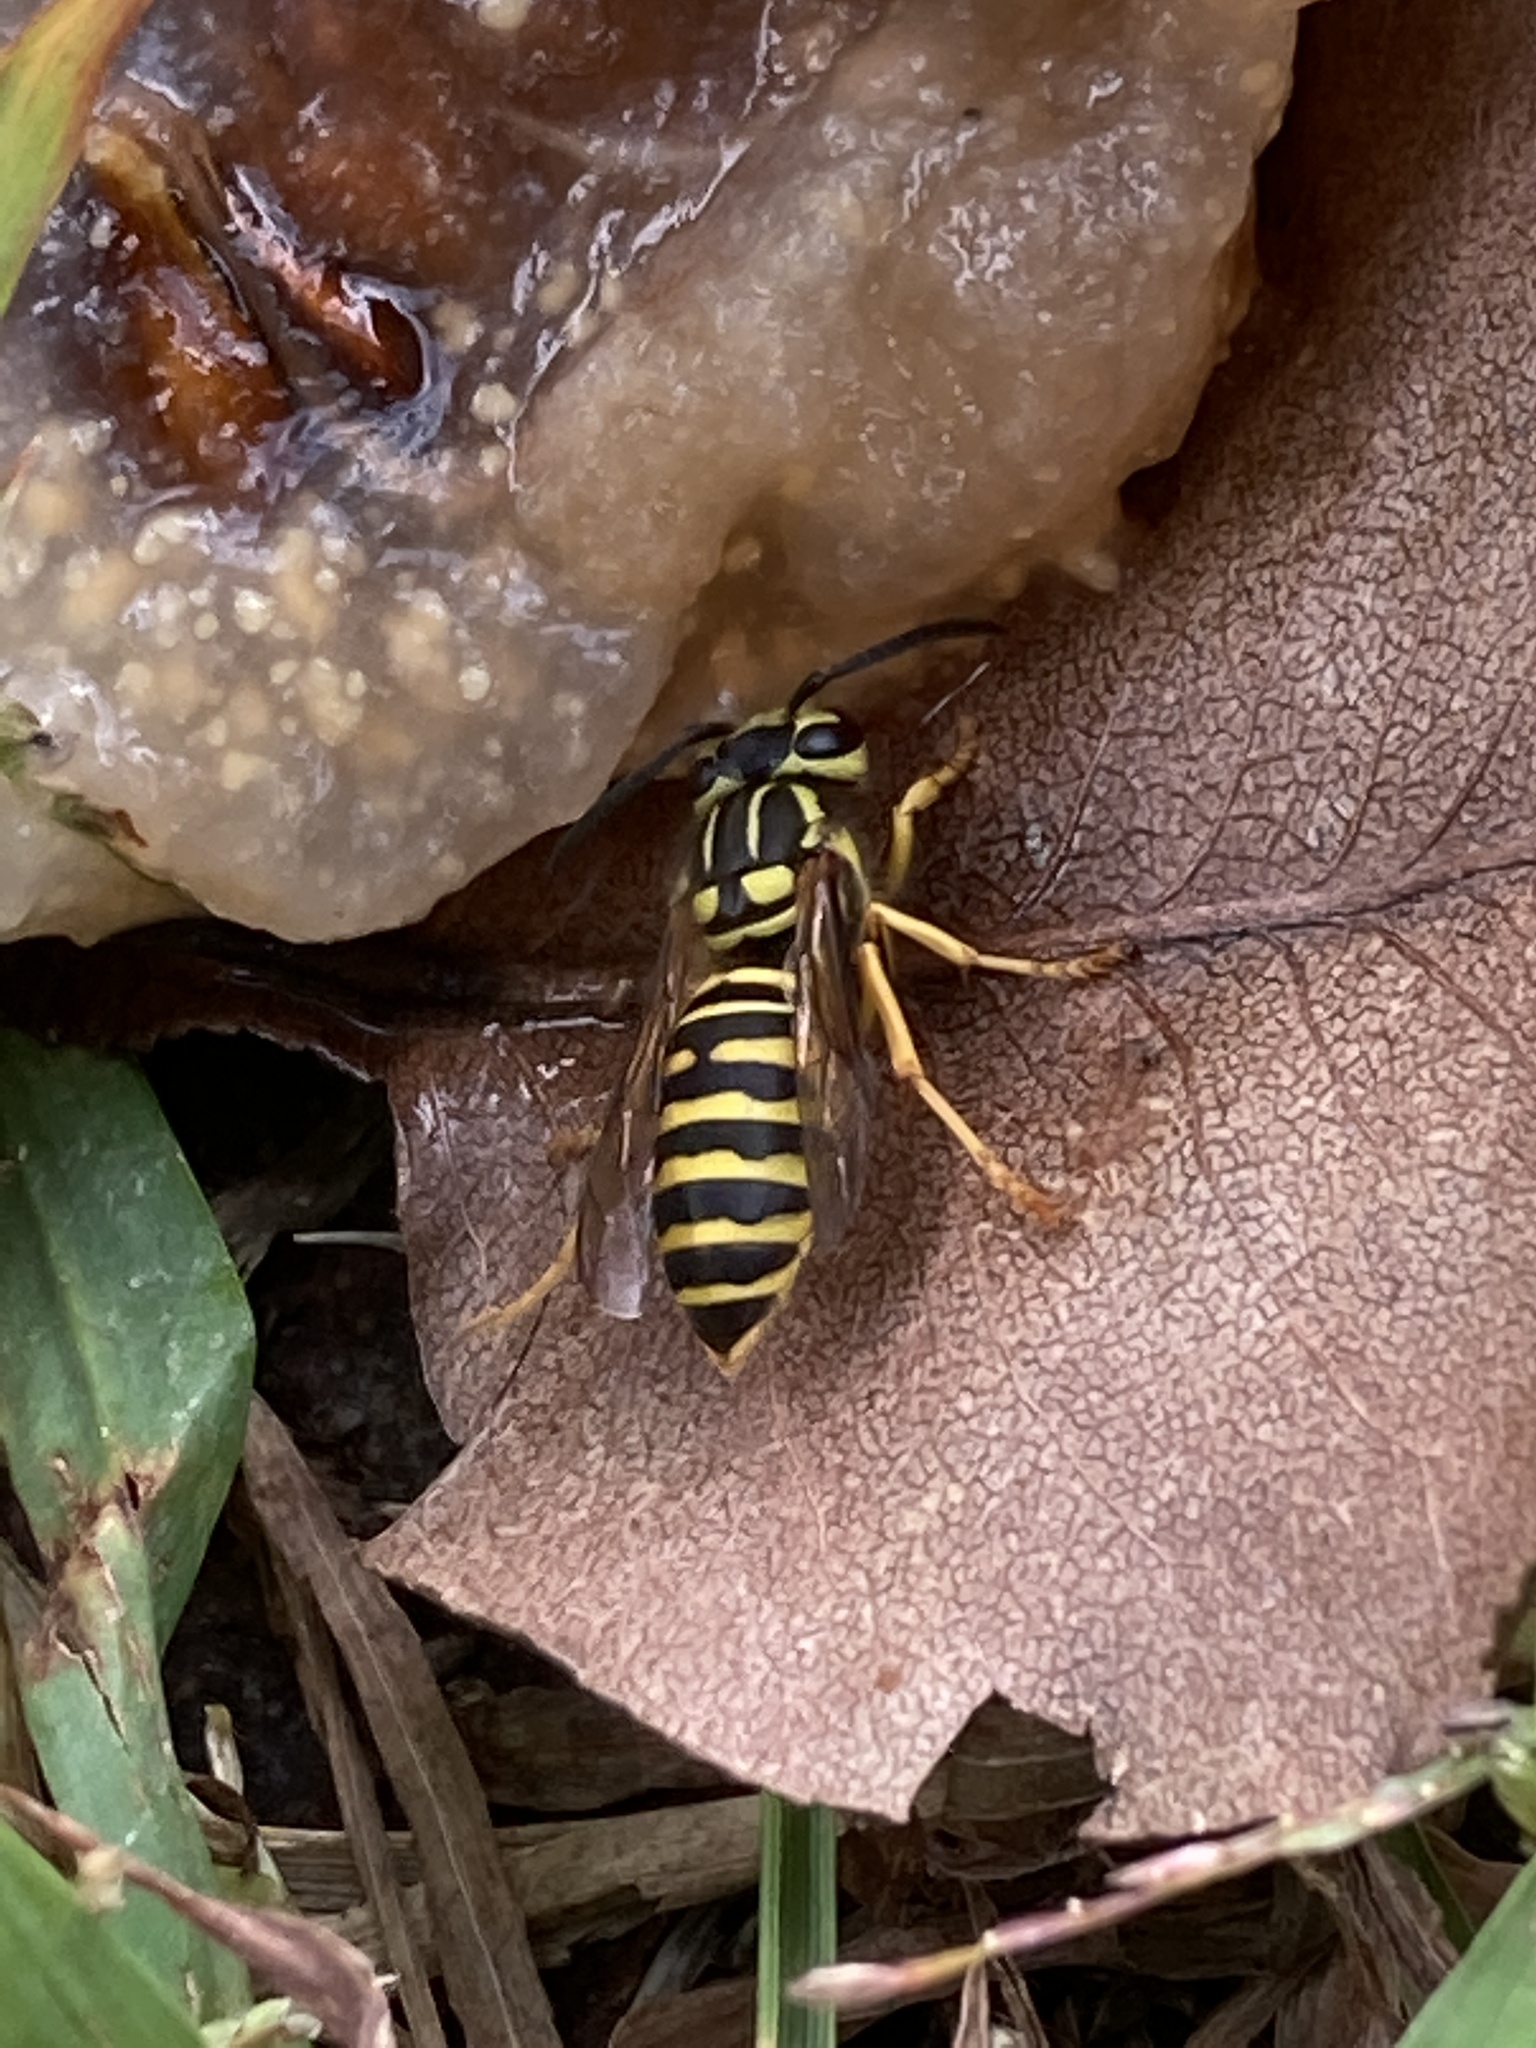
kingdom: Animalia
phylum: Arthropoda
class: Insecta
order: Hymenoptera
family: Vespidae
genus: Vespula
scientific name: Vespula squamosa
